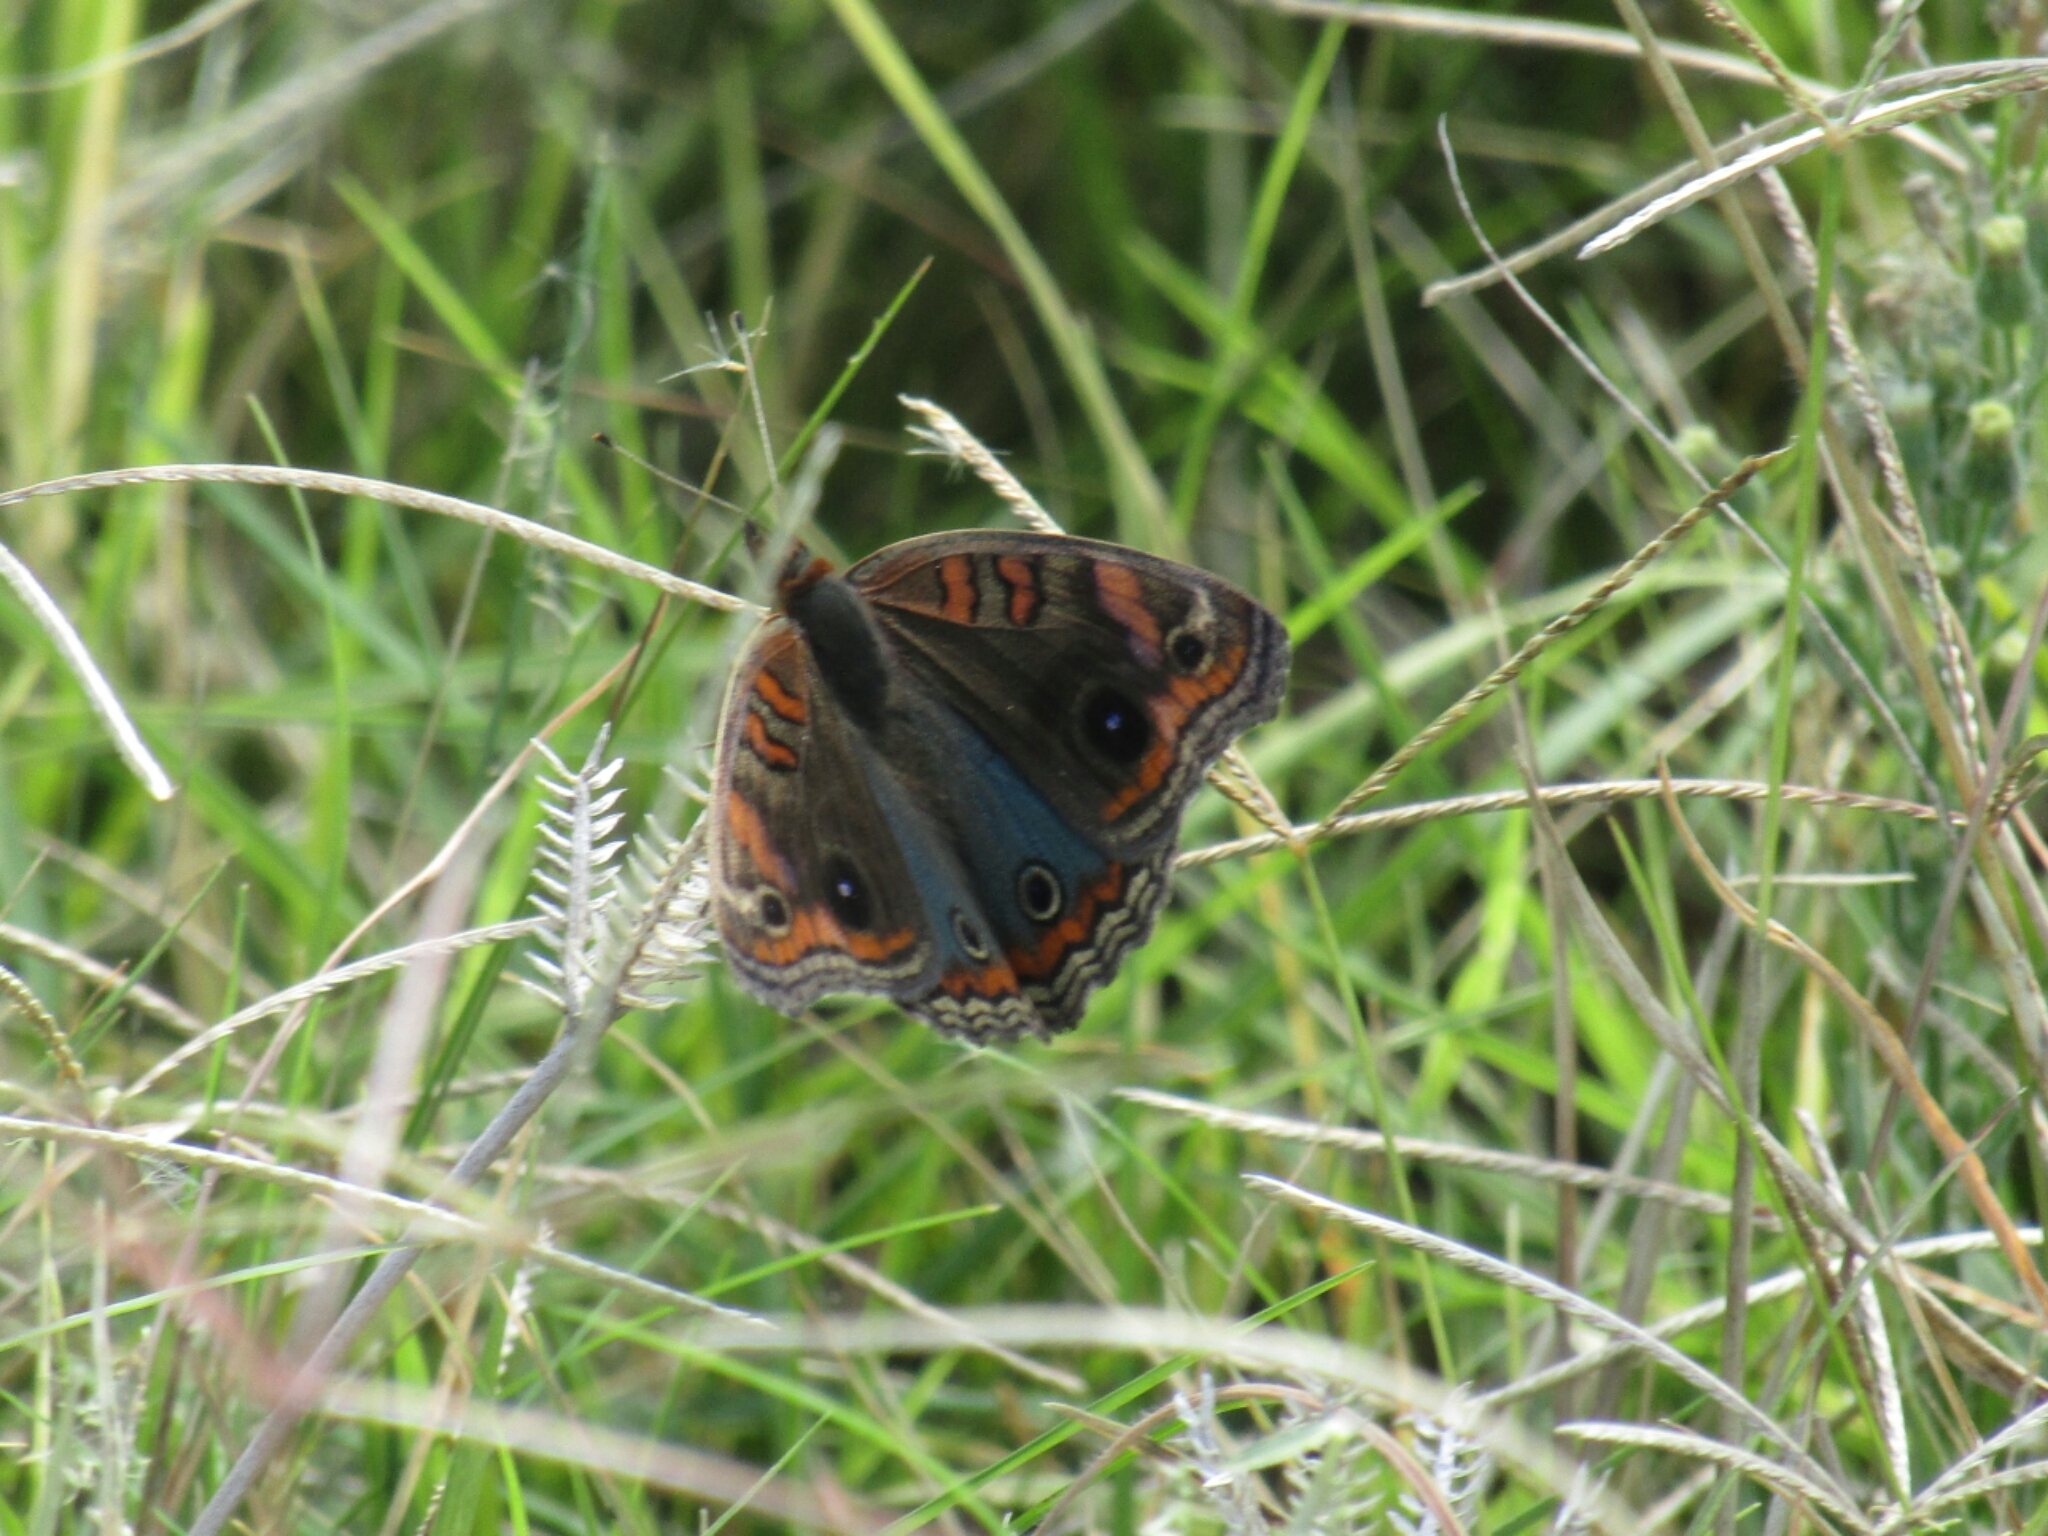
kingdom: Animalia
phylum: Arthropoda
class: Insecta
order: Lepidoptera
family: Nymphalidae
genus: Junonia
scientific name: Junonia lavinia
